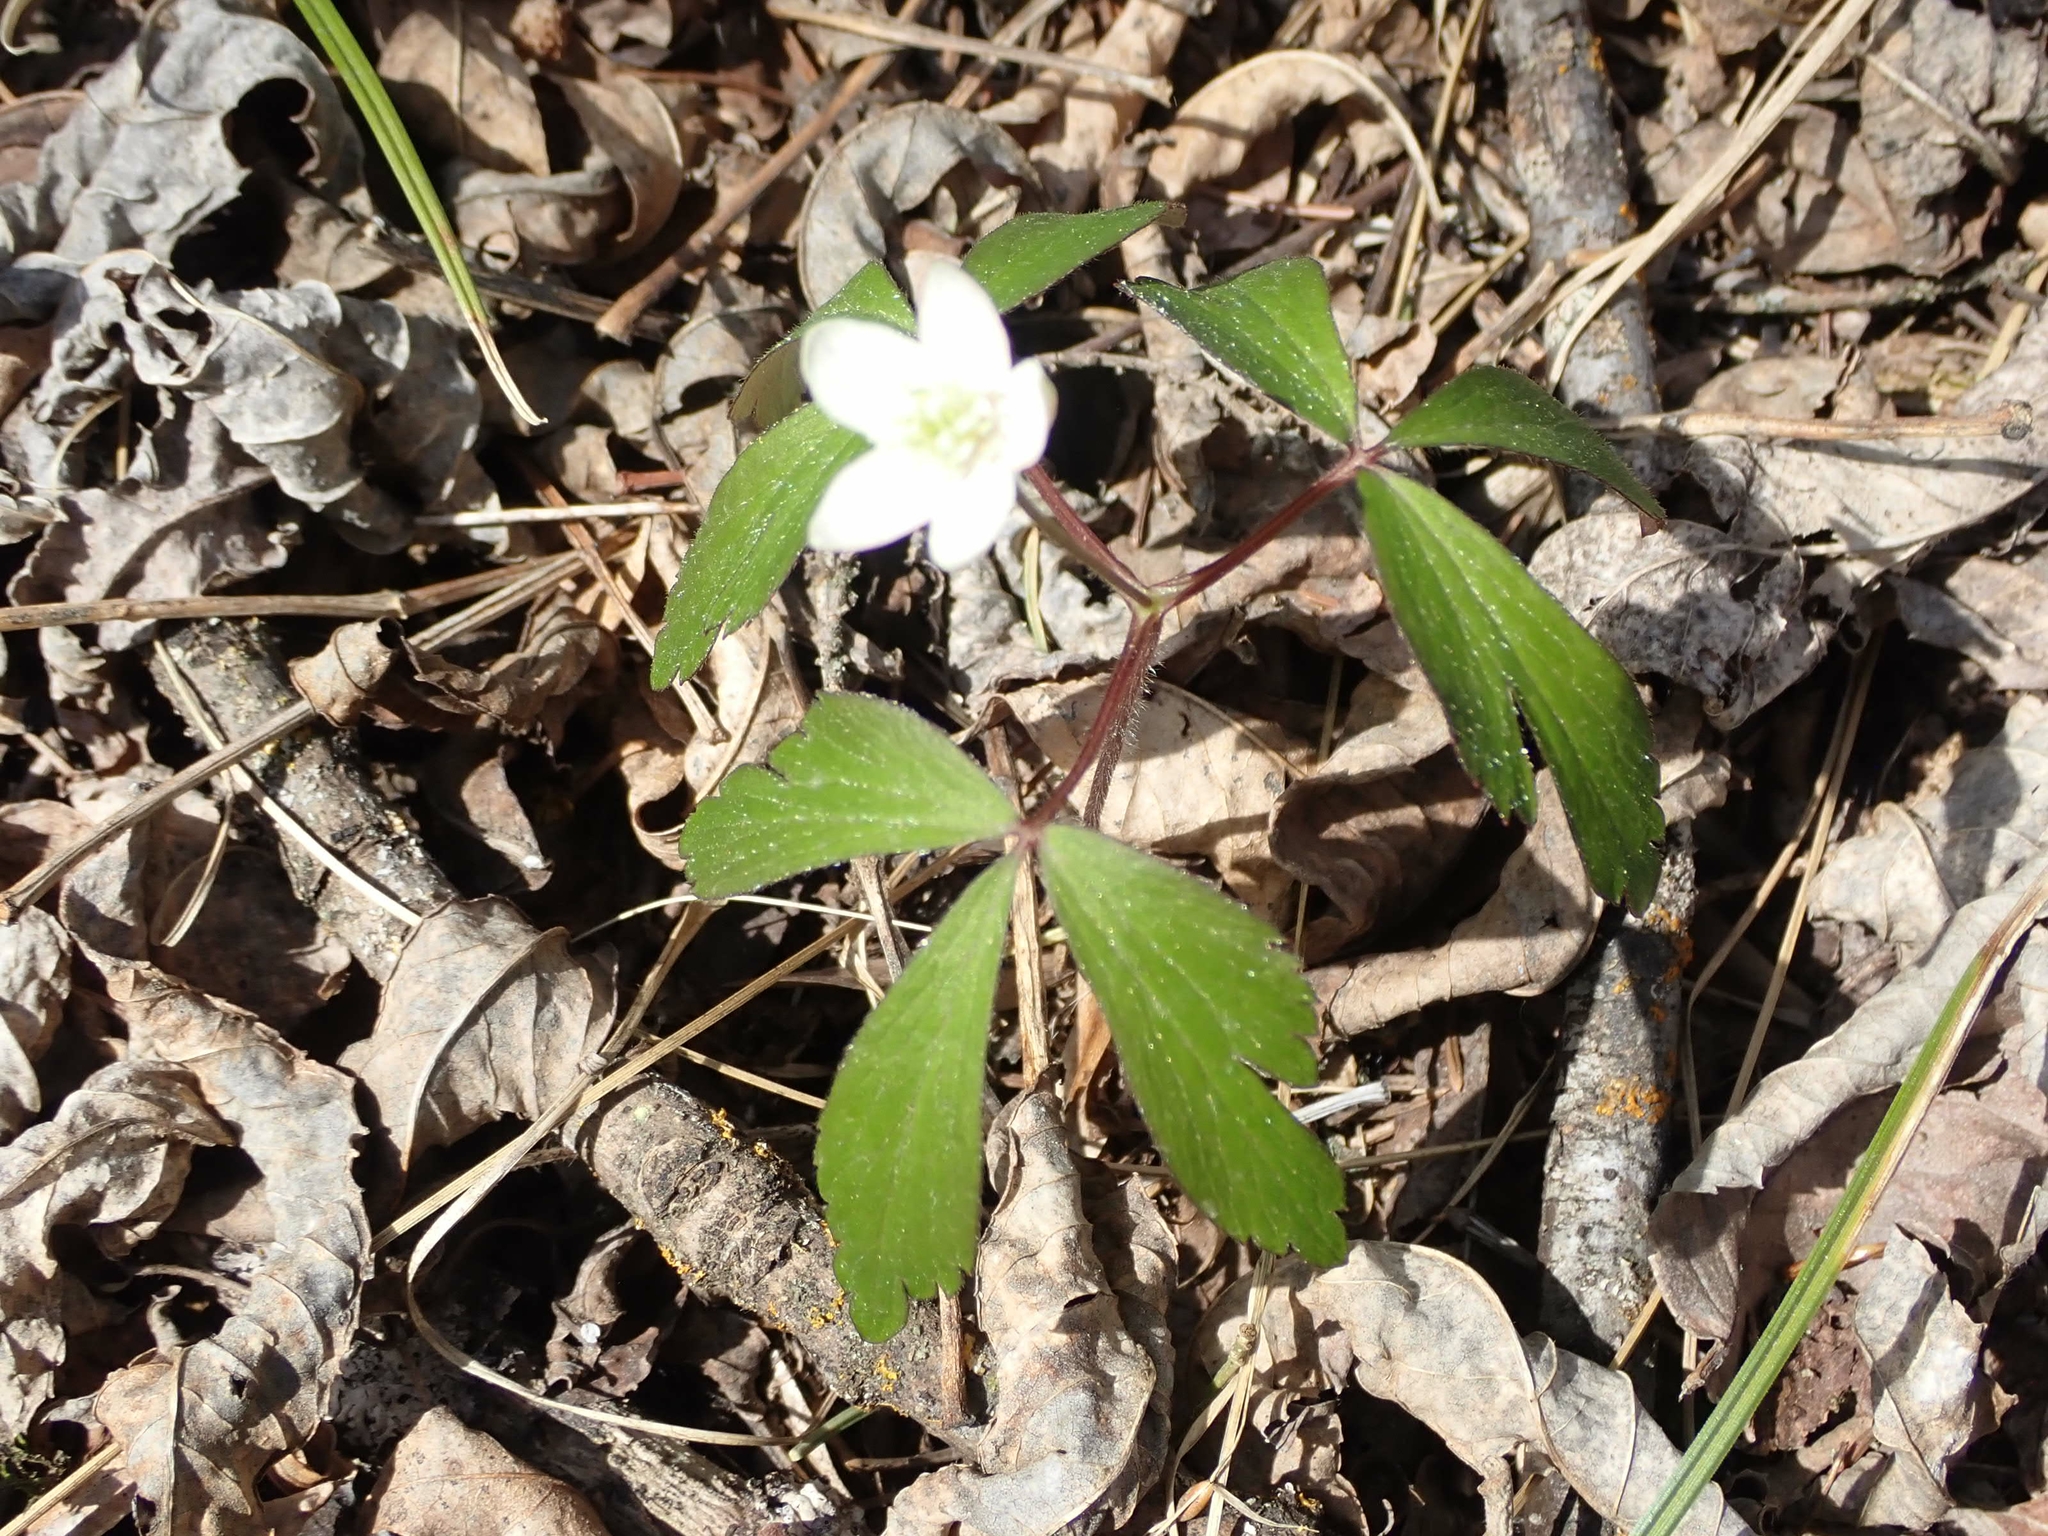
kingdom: Plantae
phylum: Tracheophyta
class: Magnoliopsida
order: Ranunculales
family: Ranunculaceae
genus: Anemone
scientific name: Anemone quinquefolia
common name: Wood anemone
